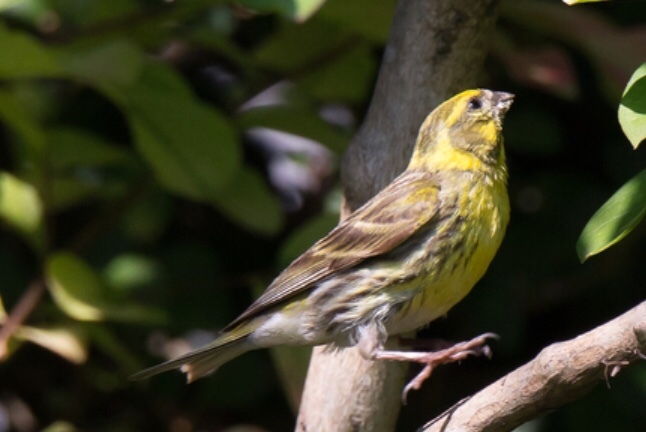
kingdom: Animalia
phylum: Chordata
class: Aves
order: Passeriformes
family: Fringillidae
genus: Serinus
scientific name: Serinus serinus
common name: European serin
